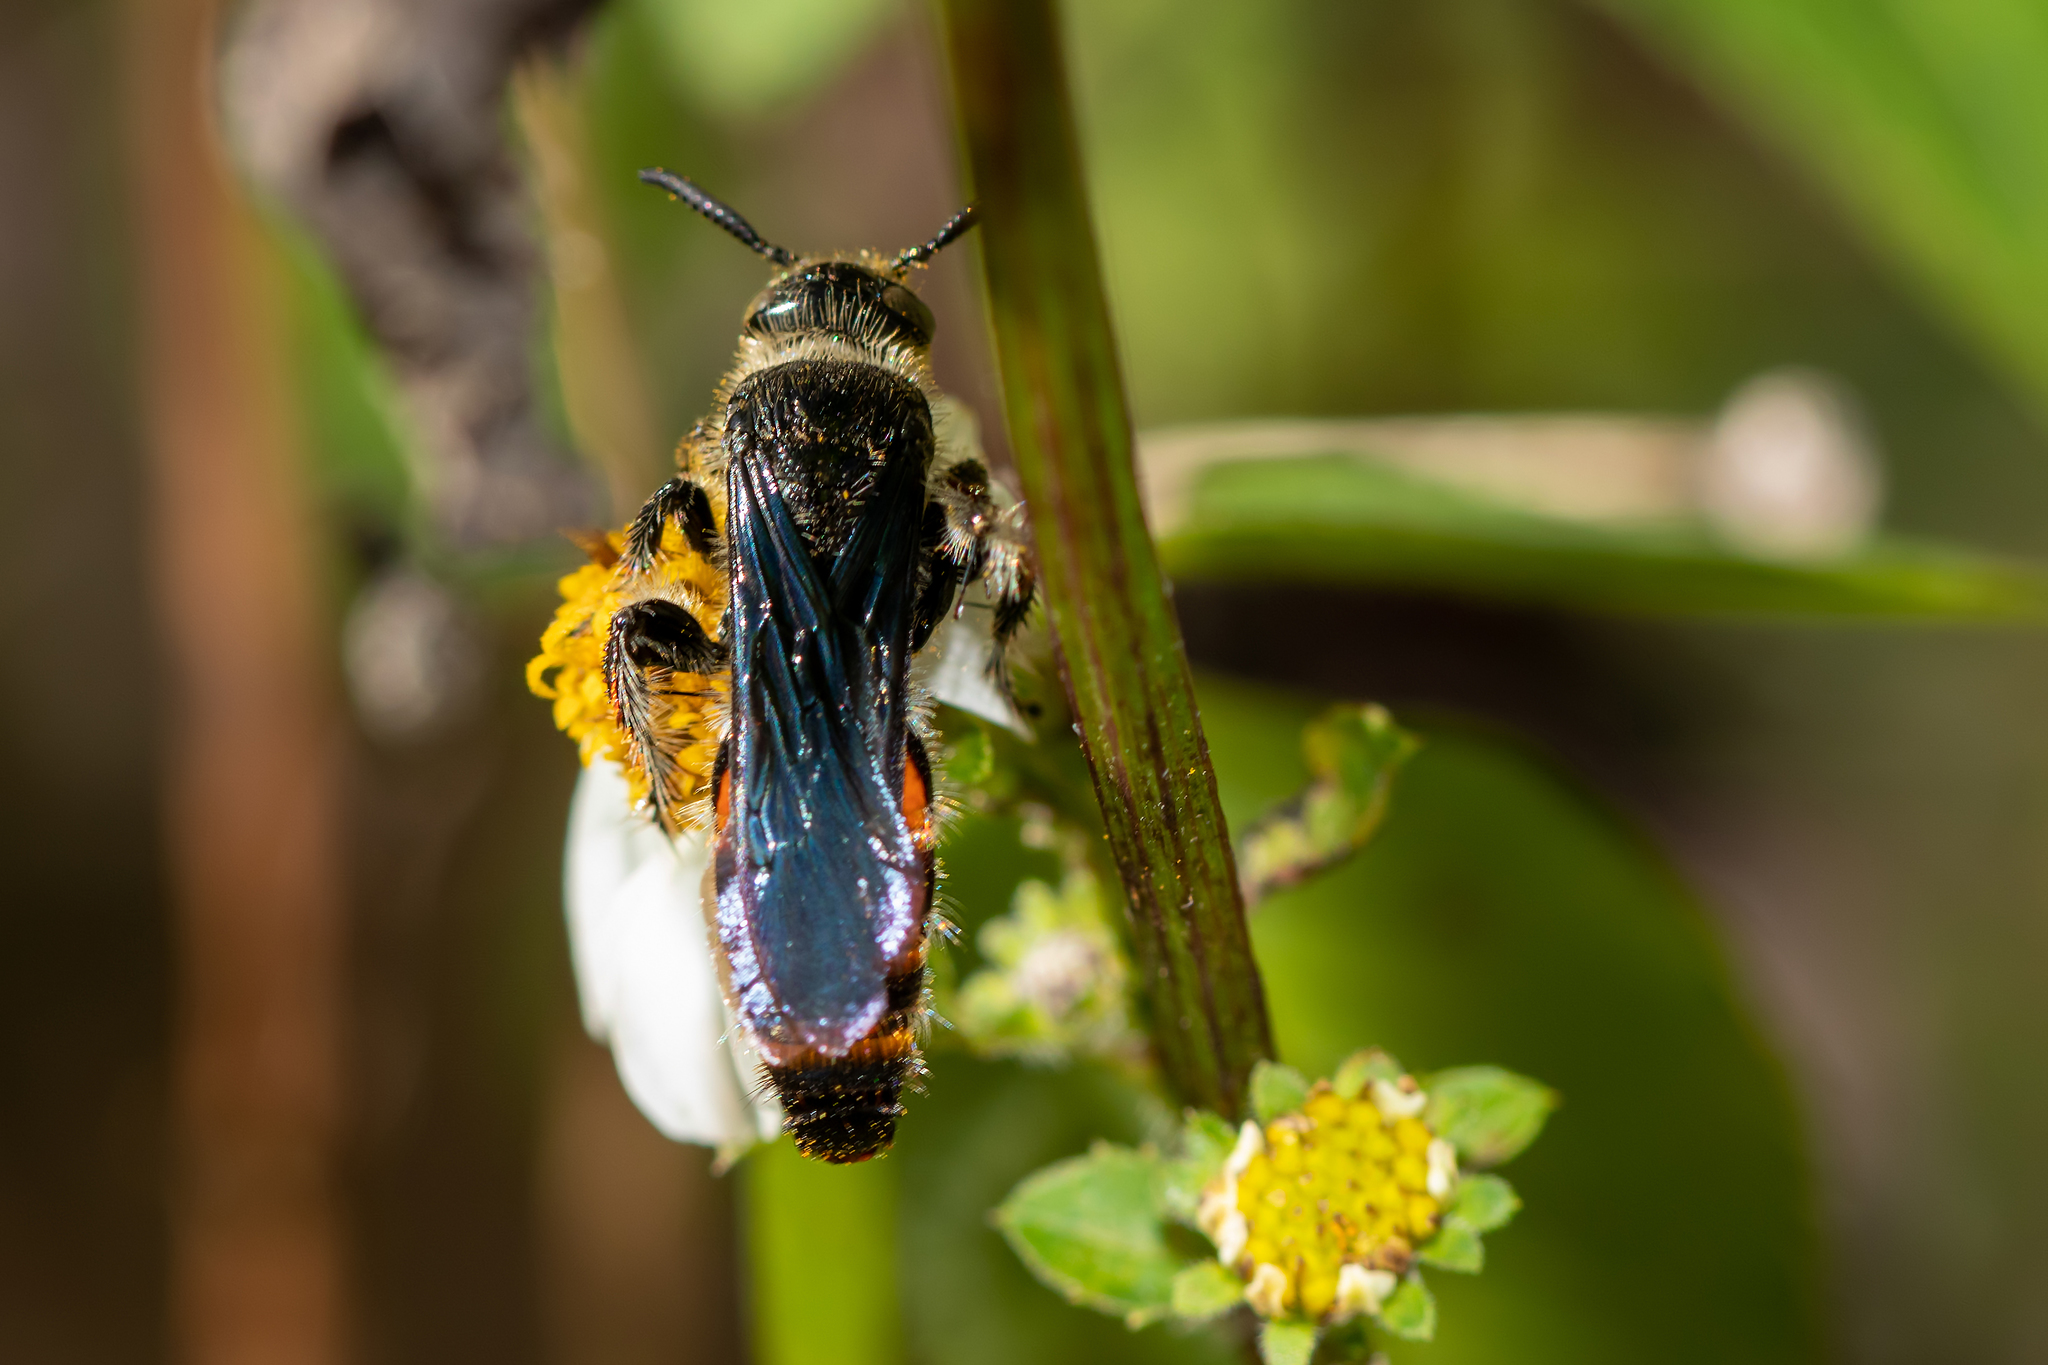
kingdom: Animalia
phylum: Arthropoda
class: Insecta
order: Hymenoptera
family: Scoliidae
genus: Dielis
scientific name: Dielis dorsata
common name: Scoliid wasp
